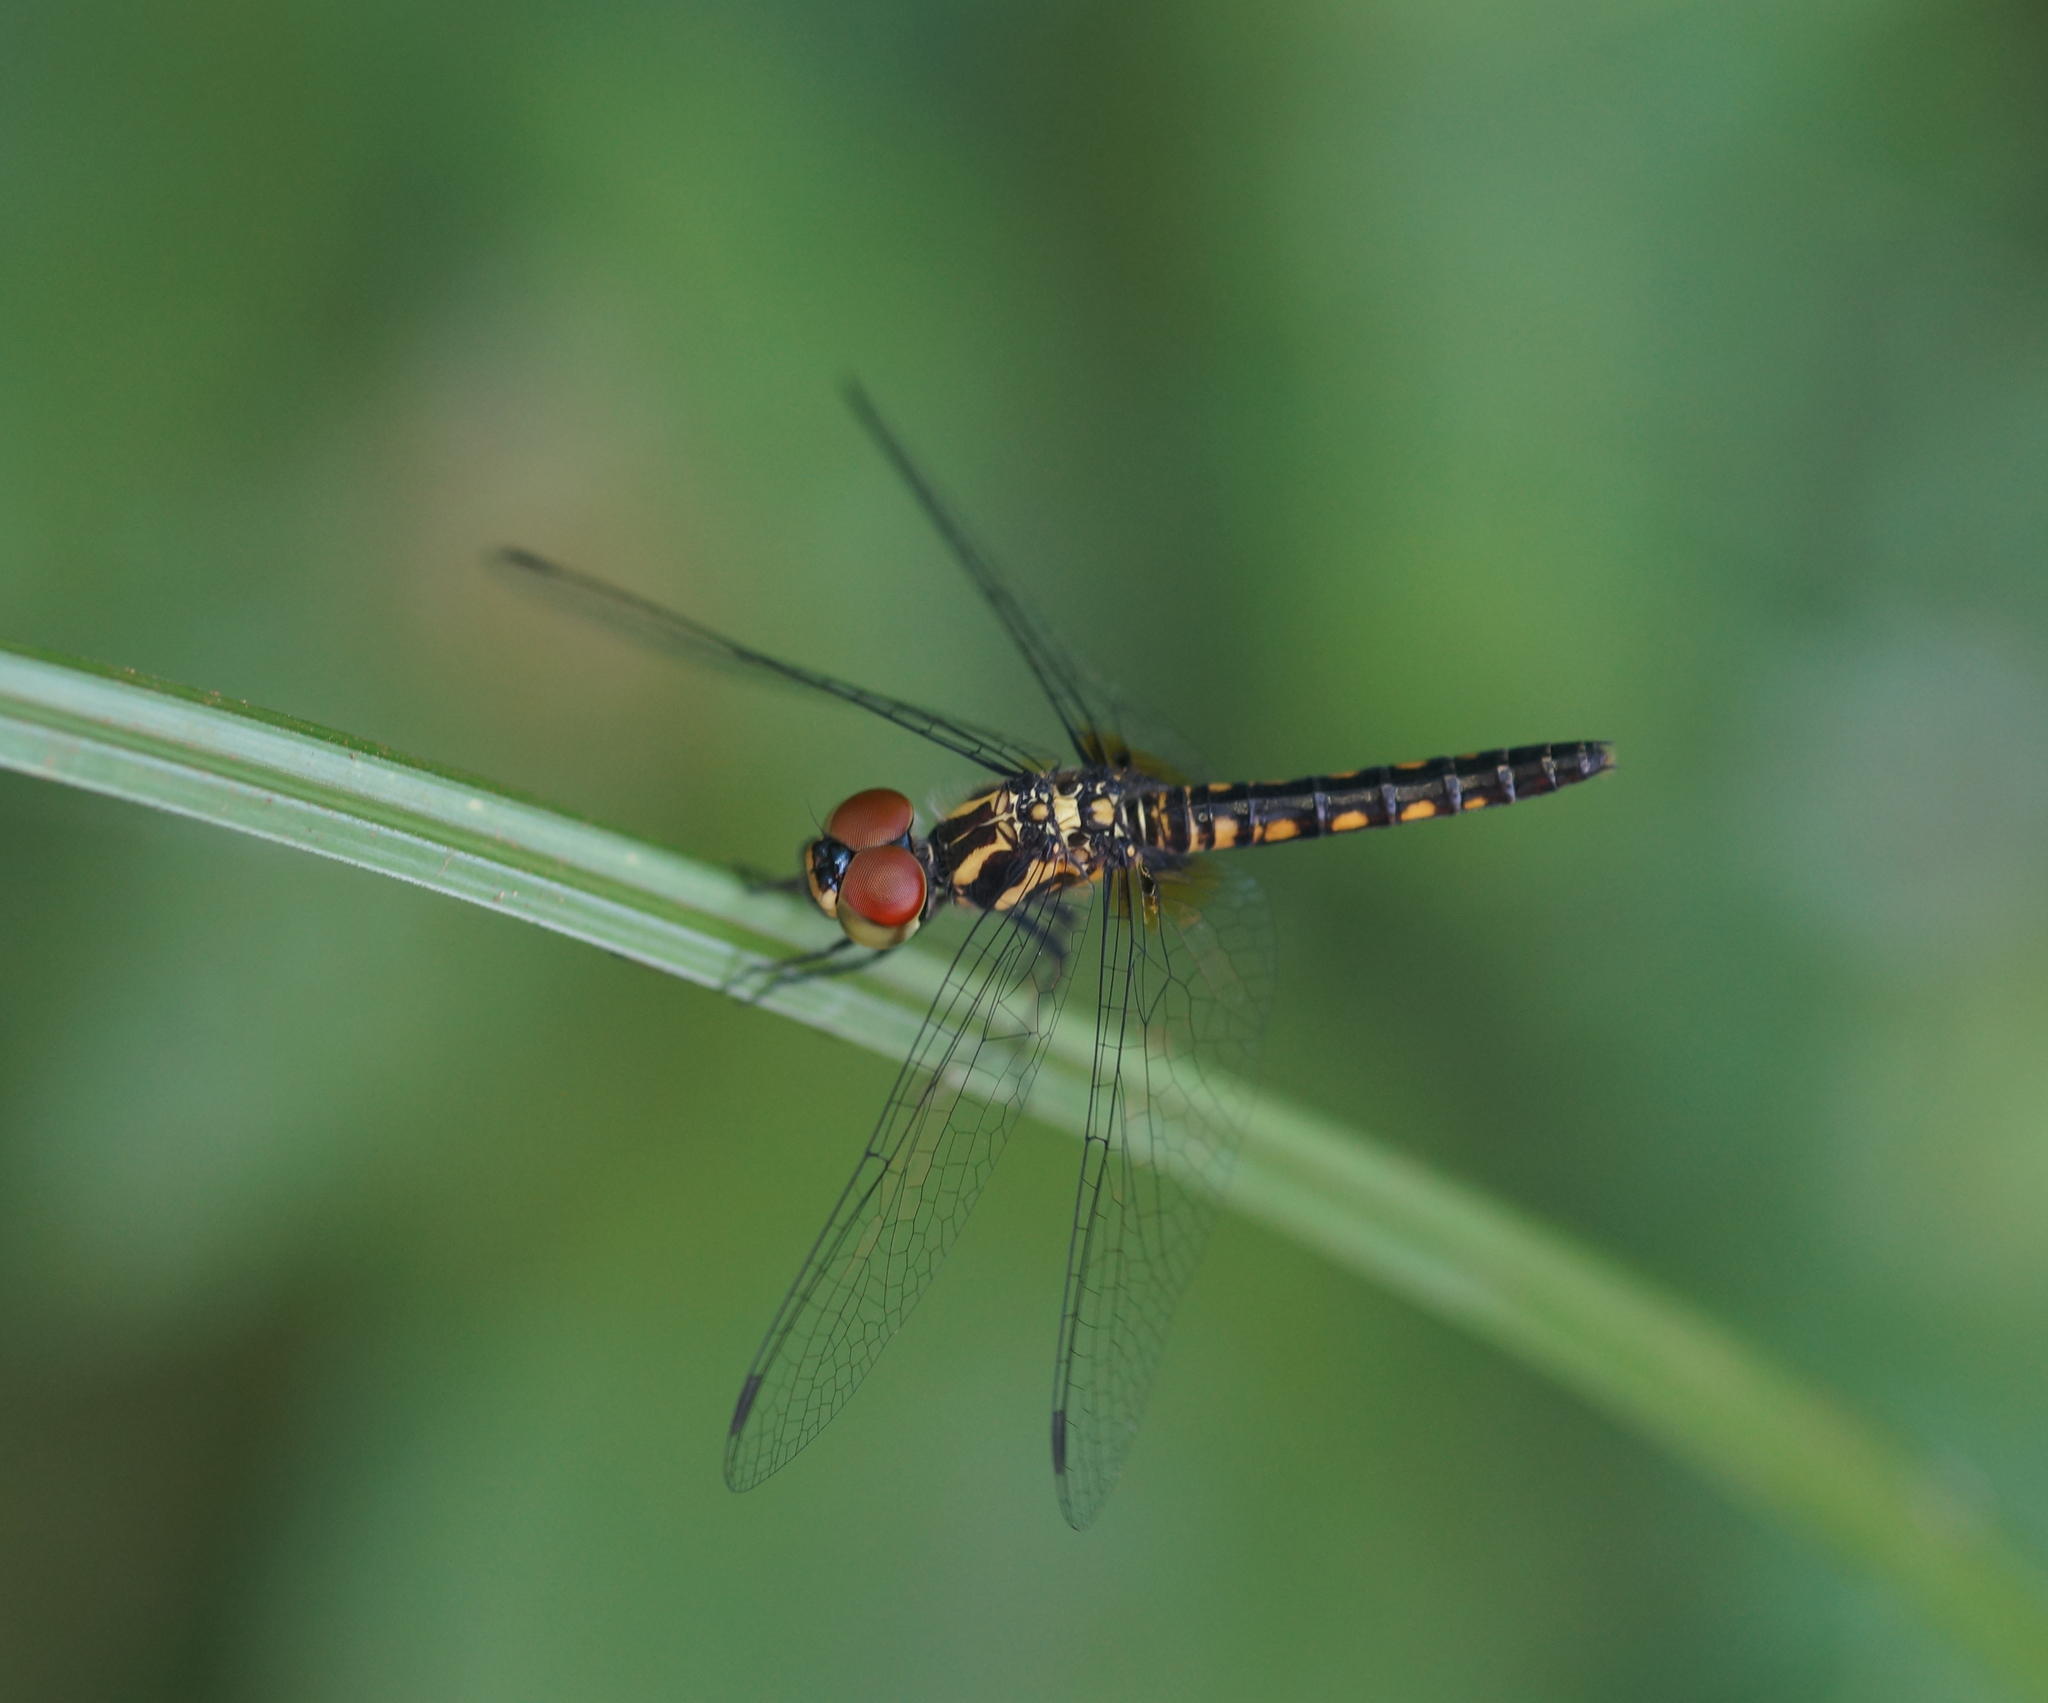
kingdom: Animalia
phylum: Arthropoda
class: Insecta
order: Odonata
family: Libellulidae
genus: Aethriamanta
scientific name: Aethriamanta aethra
